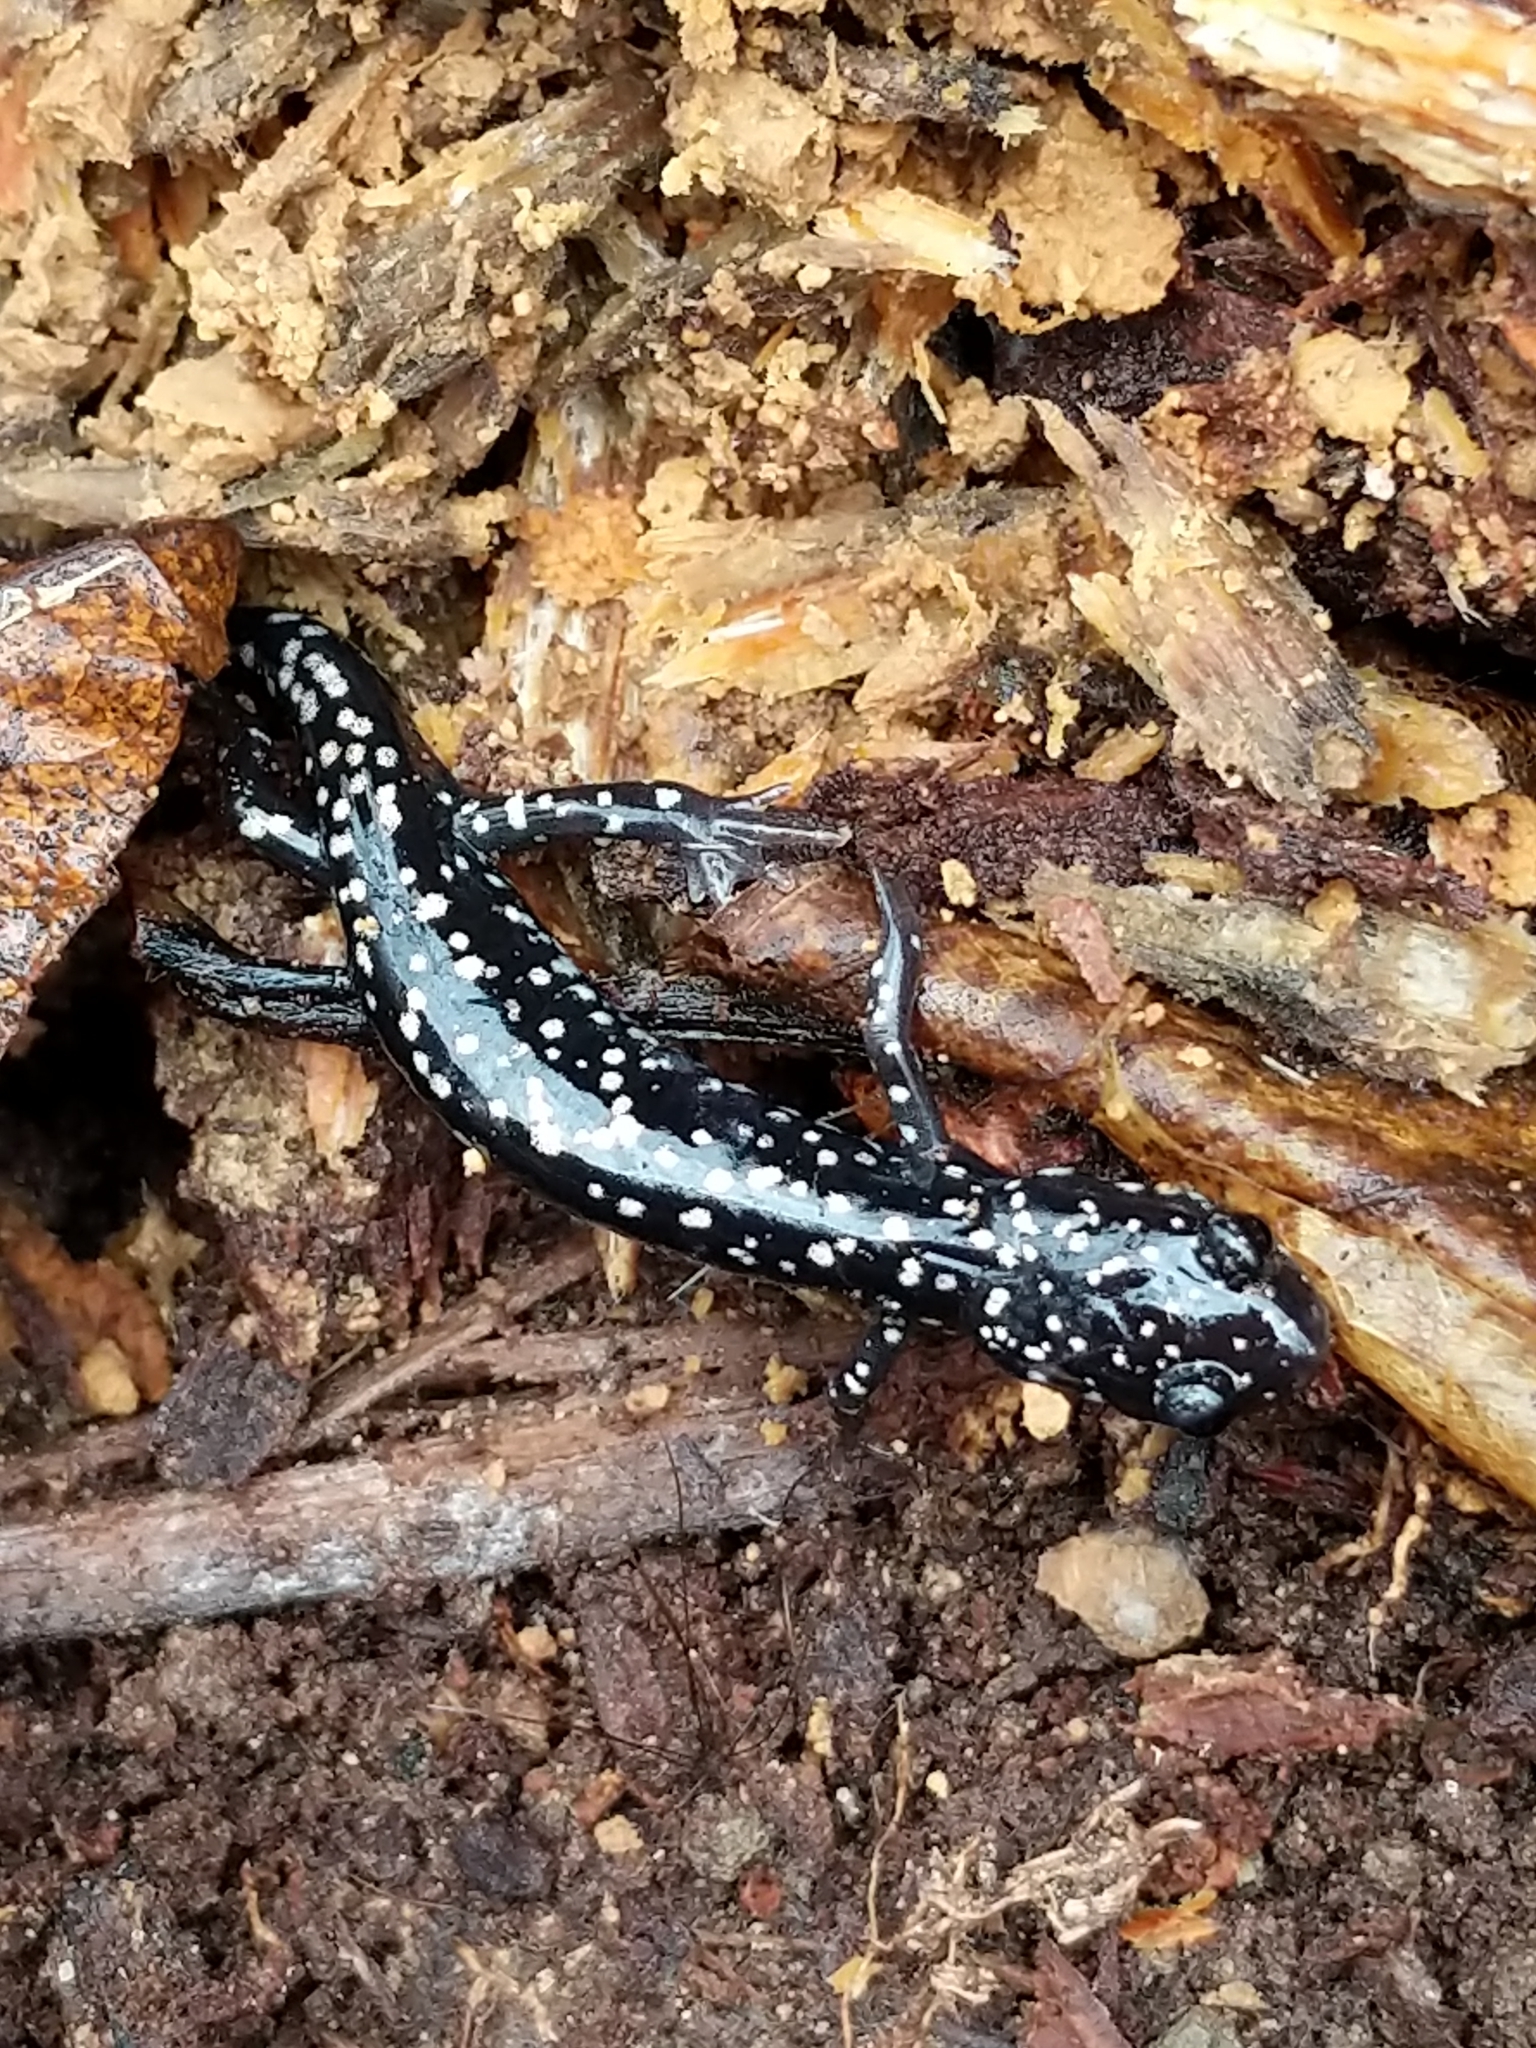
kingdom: Animalia
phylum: Chordata
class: Amphibia
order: Caudata
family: Plethodontidae
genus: Plethodon
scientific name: Plethodon glutinosus
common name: Northern slimy salamander
